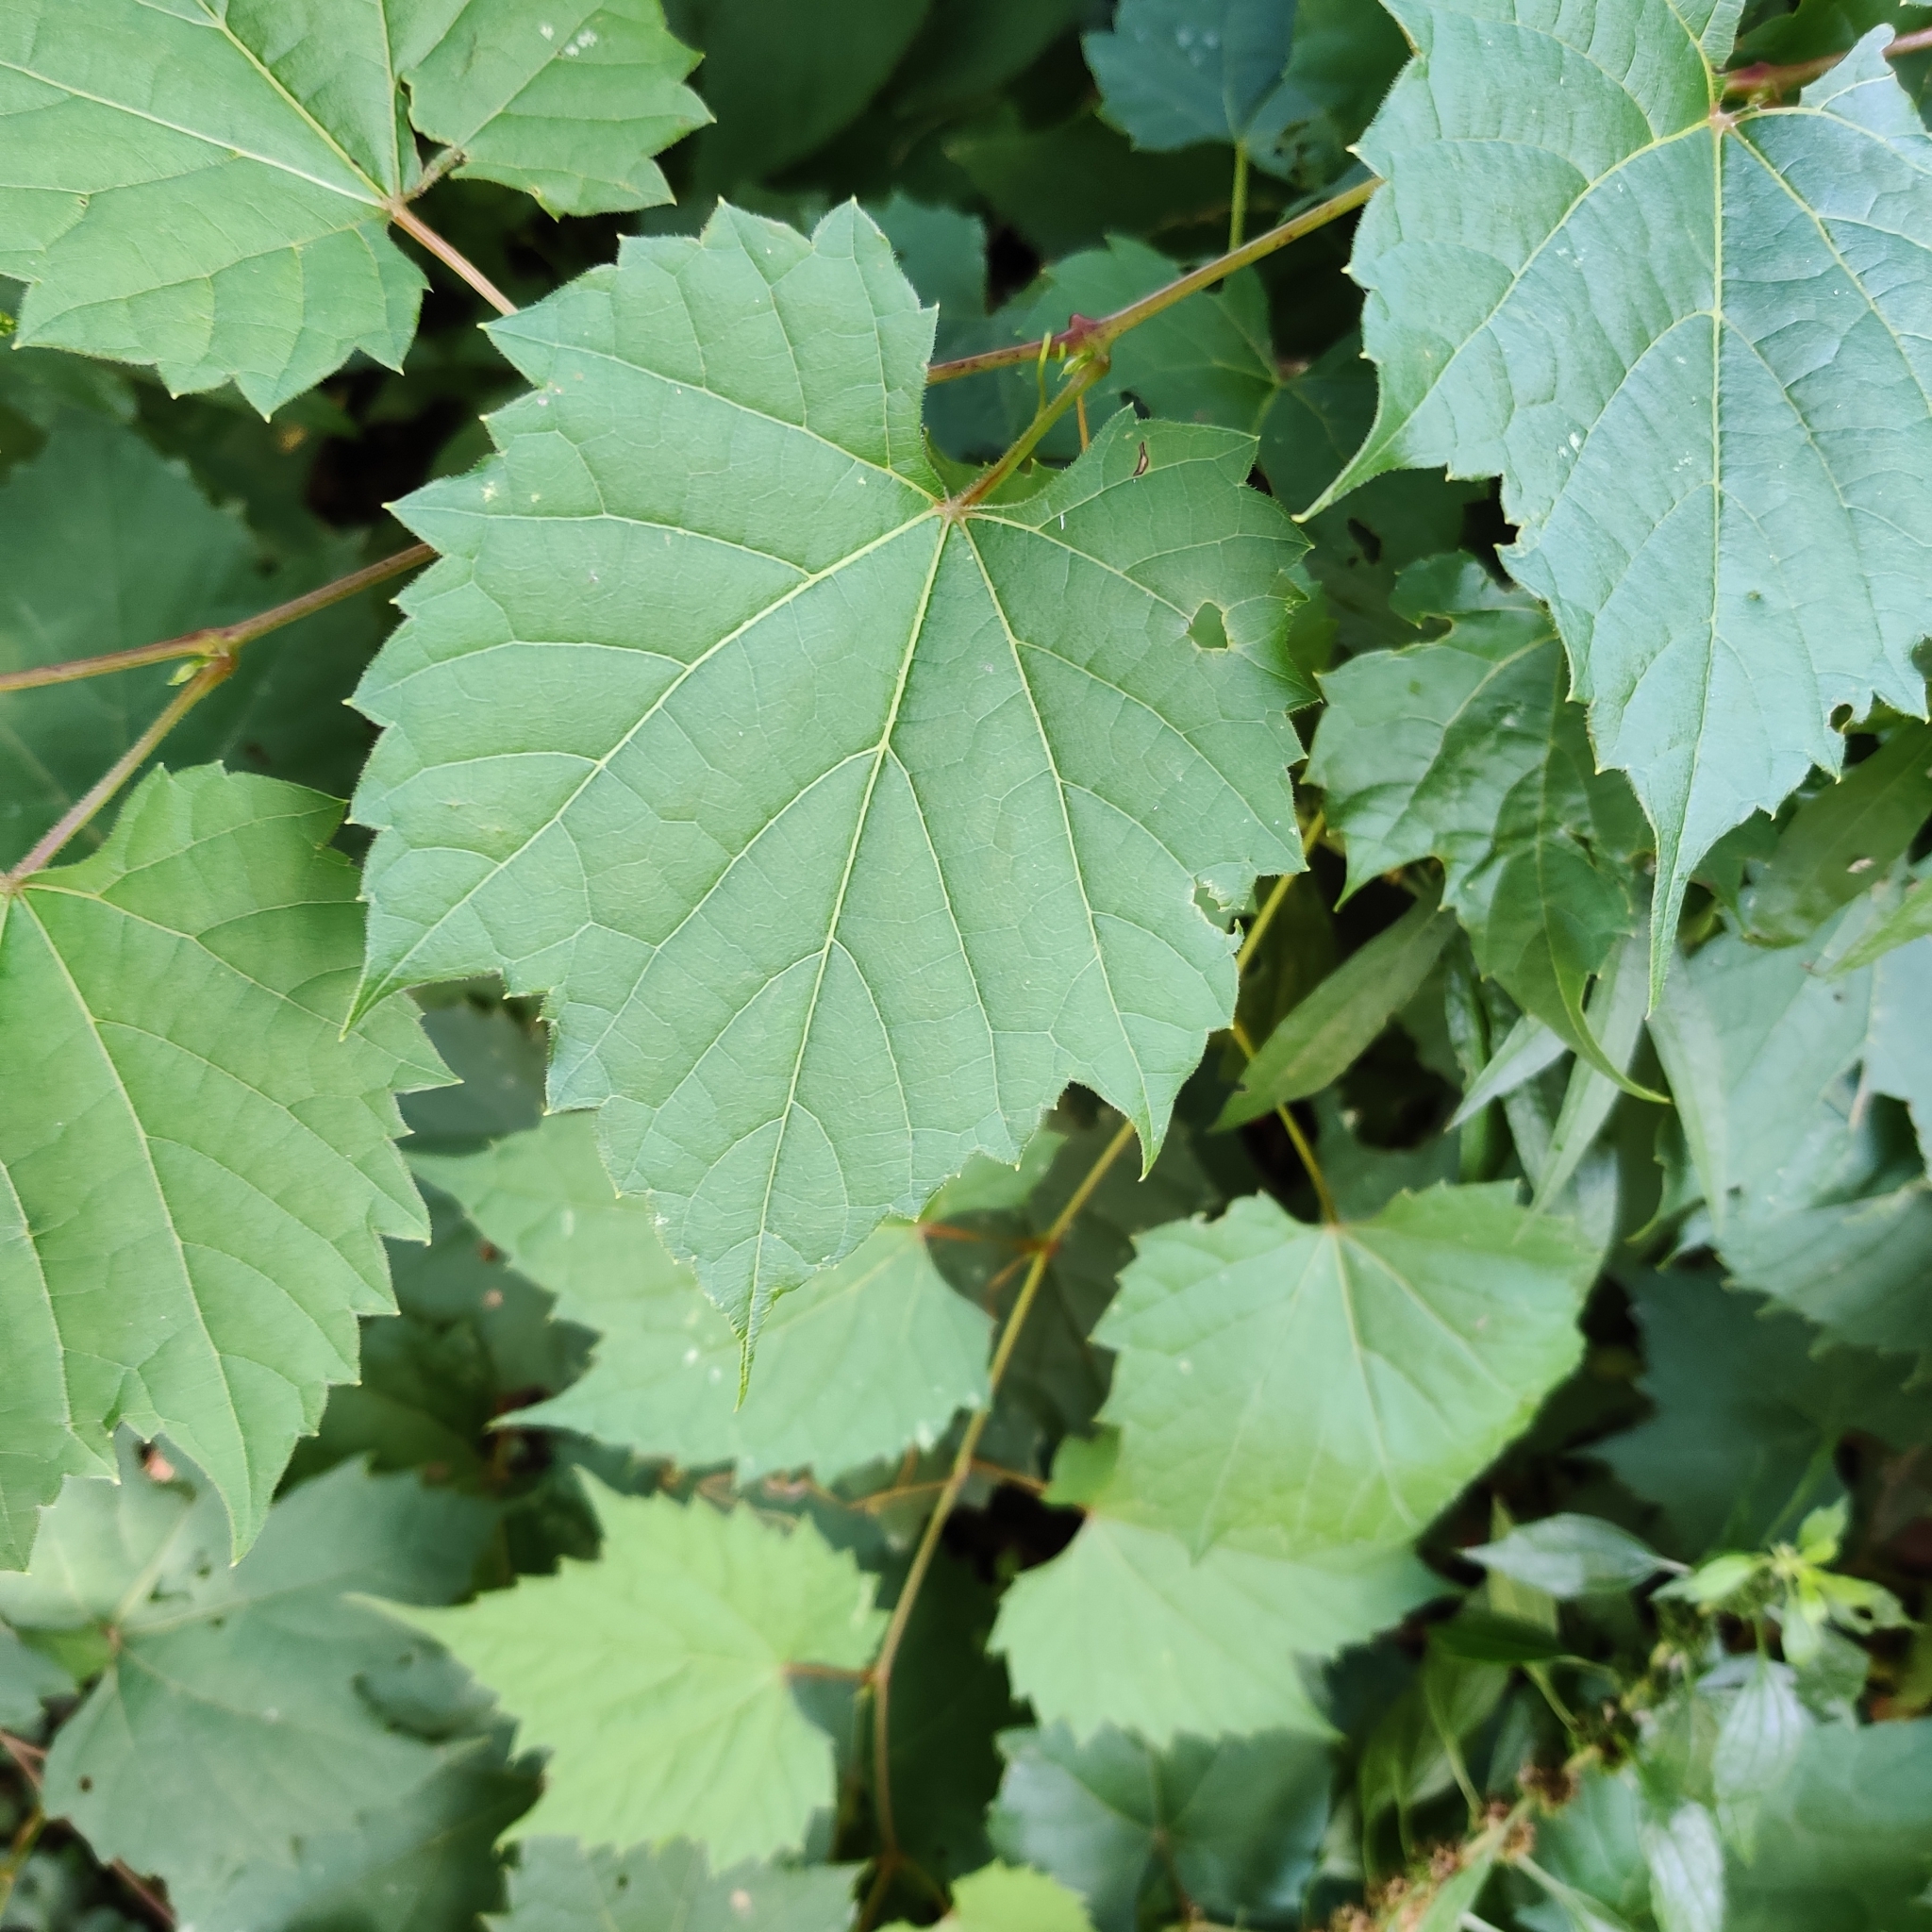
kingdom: Plantae
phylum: Tracheophyta
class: Magnoliopsida
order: Vitales
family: Vitaceae
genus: Vitis
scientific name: Vitis riparia
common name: Frost grape
